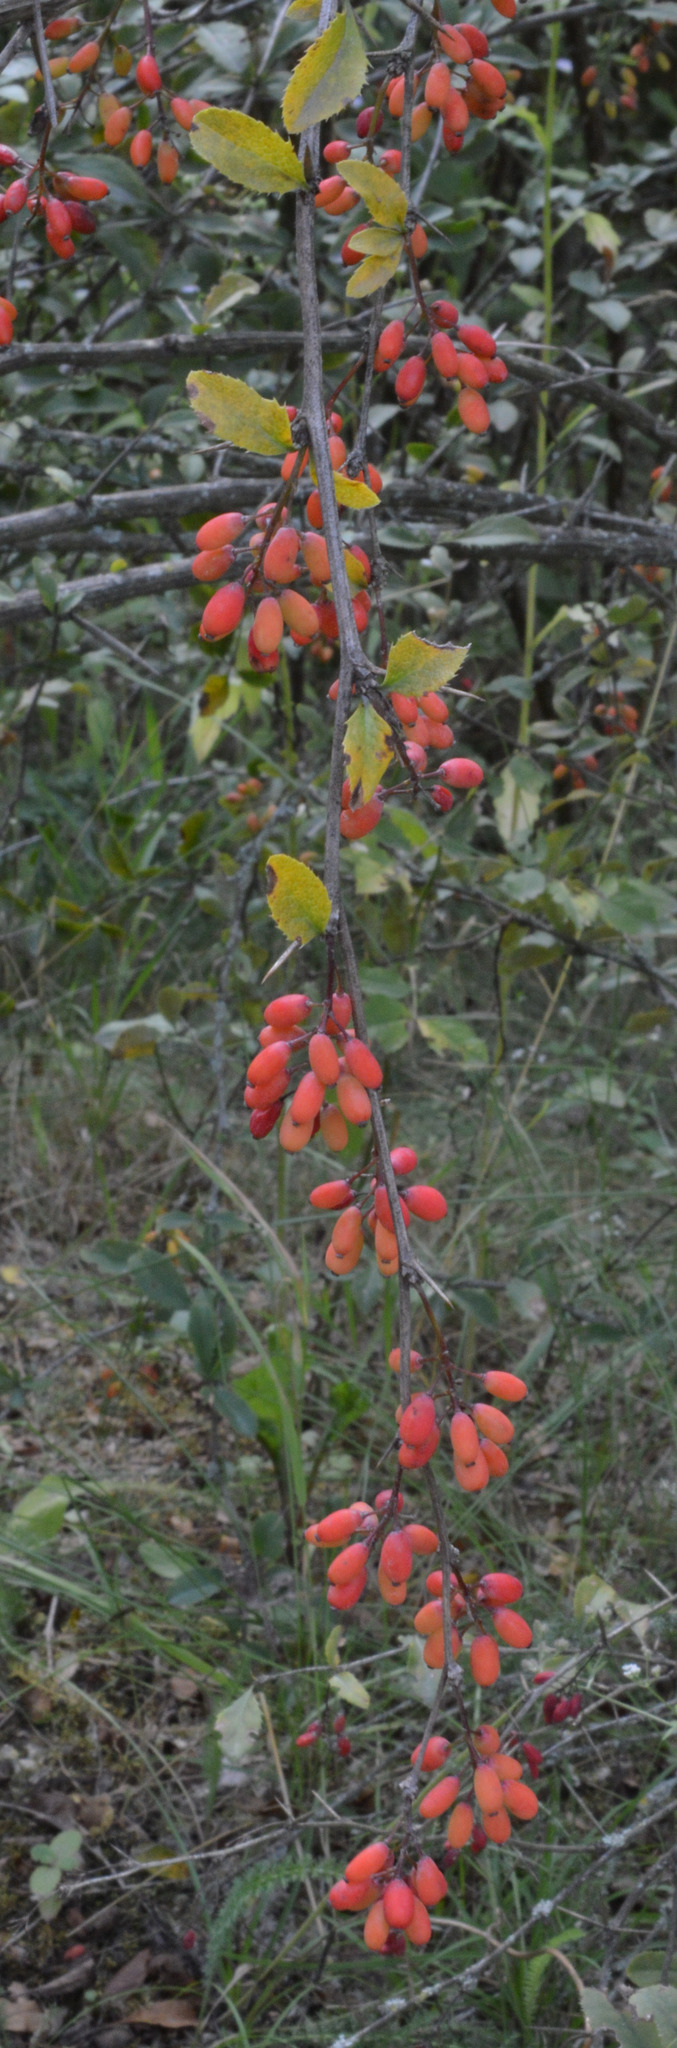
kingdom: Plantae
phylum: Tracheophyta
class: Magnoliopsida
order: Ranunculales
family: Berberidaceae
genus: Berberis
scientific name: Berberis vulgaris
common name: Barberry
